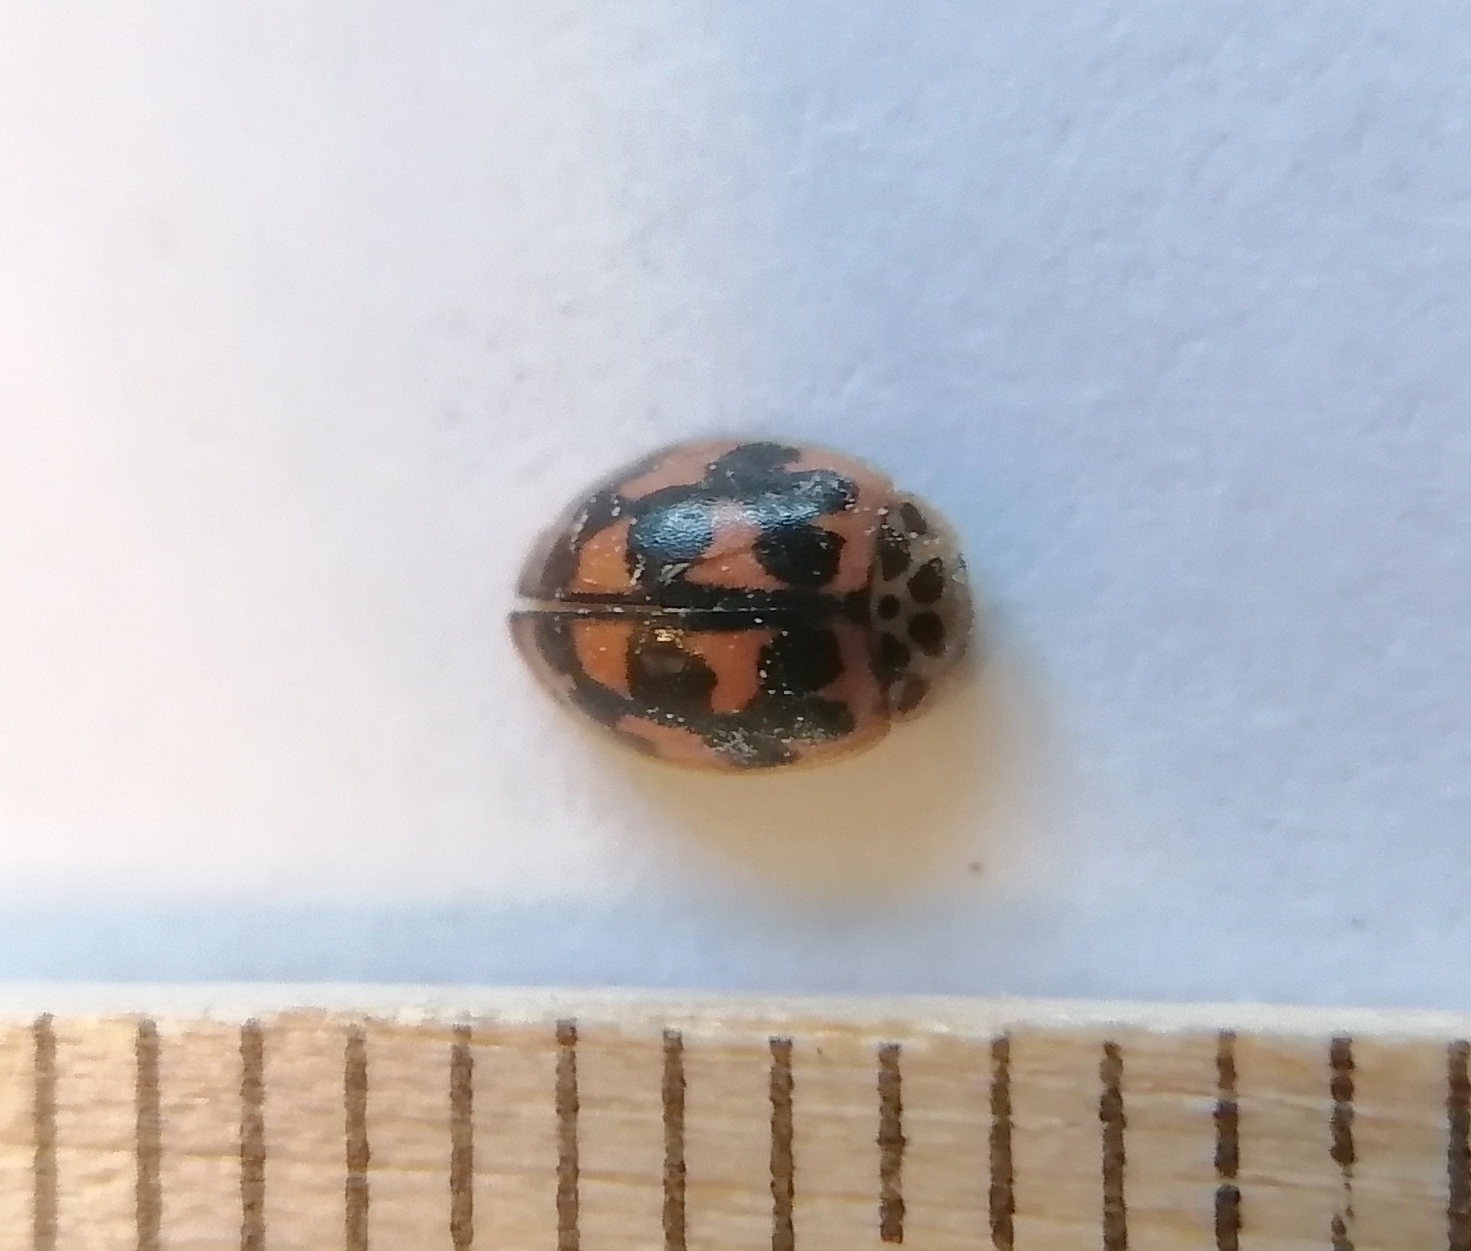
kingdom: Animalia
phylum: Arthropoda
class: Insecta
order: Coleoptera
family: Coccinellidae
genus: Oenopia
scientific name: Oenopia conglobata
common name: Ladybird beetle
